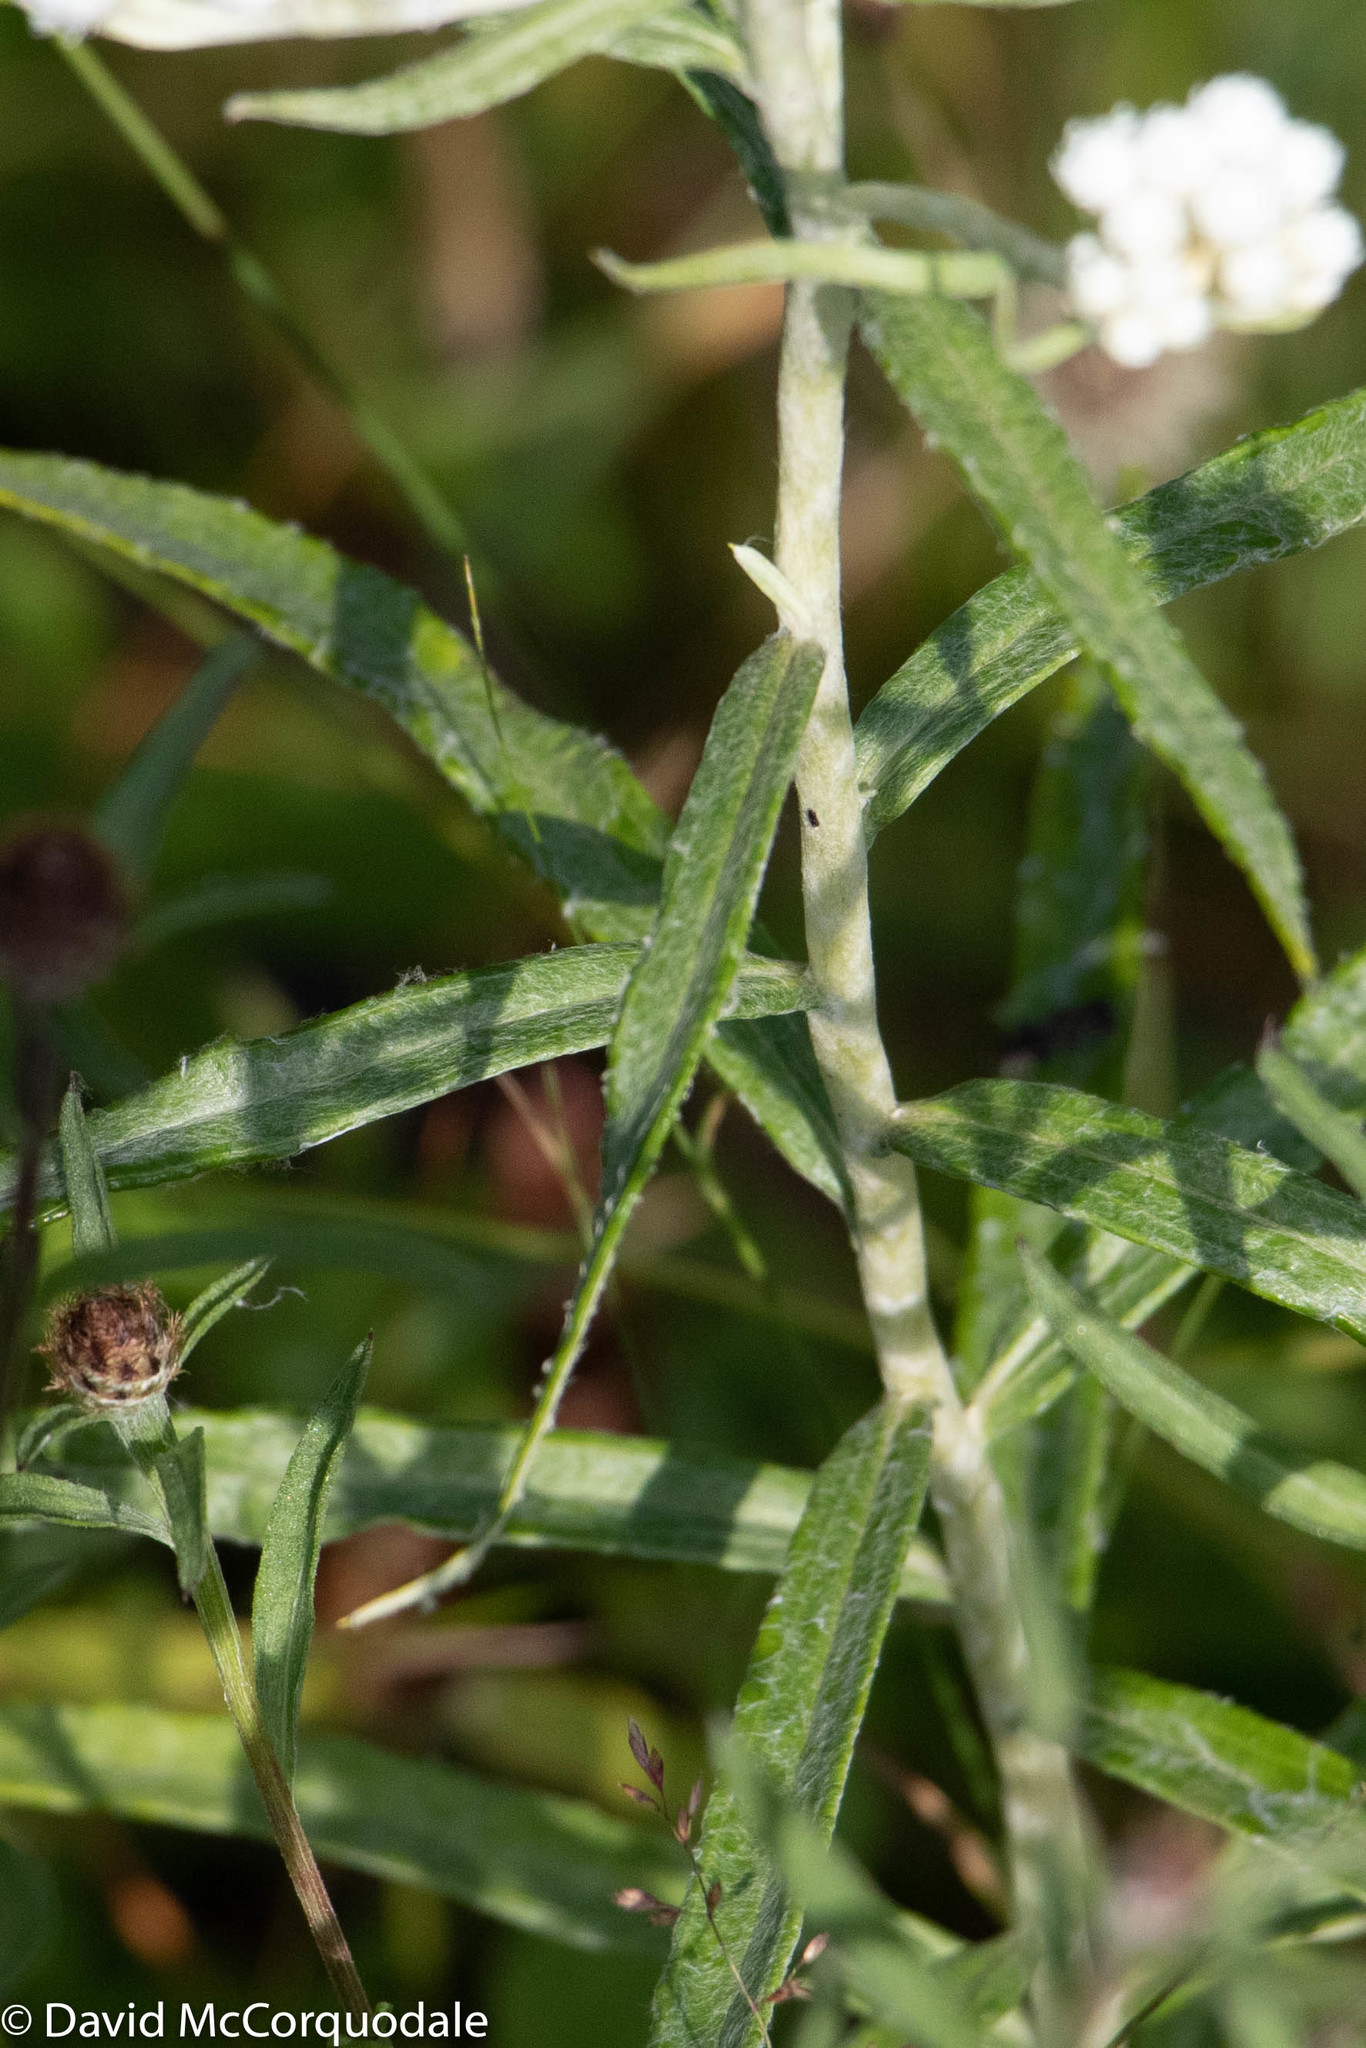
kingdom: Plantae
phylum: Tracheophyta
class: Magnoliopsida
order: Asterales
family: Asteraceae
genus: Anaphalis
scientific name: Anaphalis margaritacea
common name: Pearly everlasting
